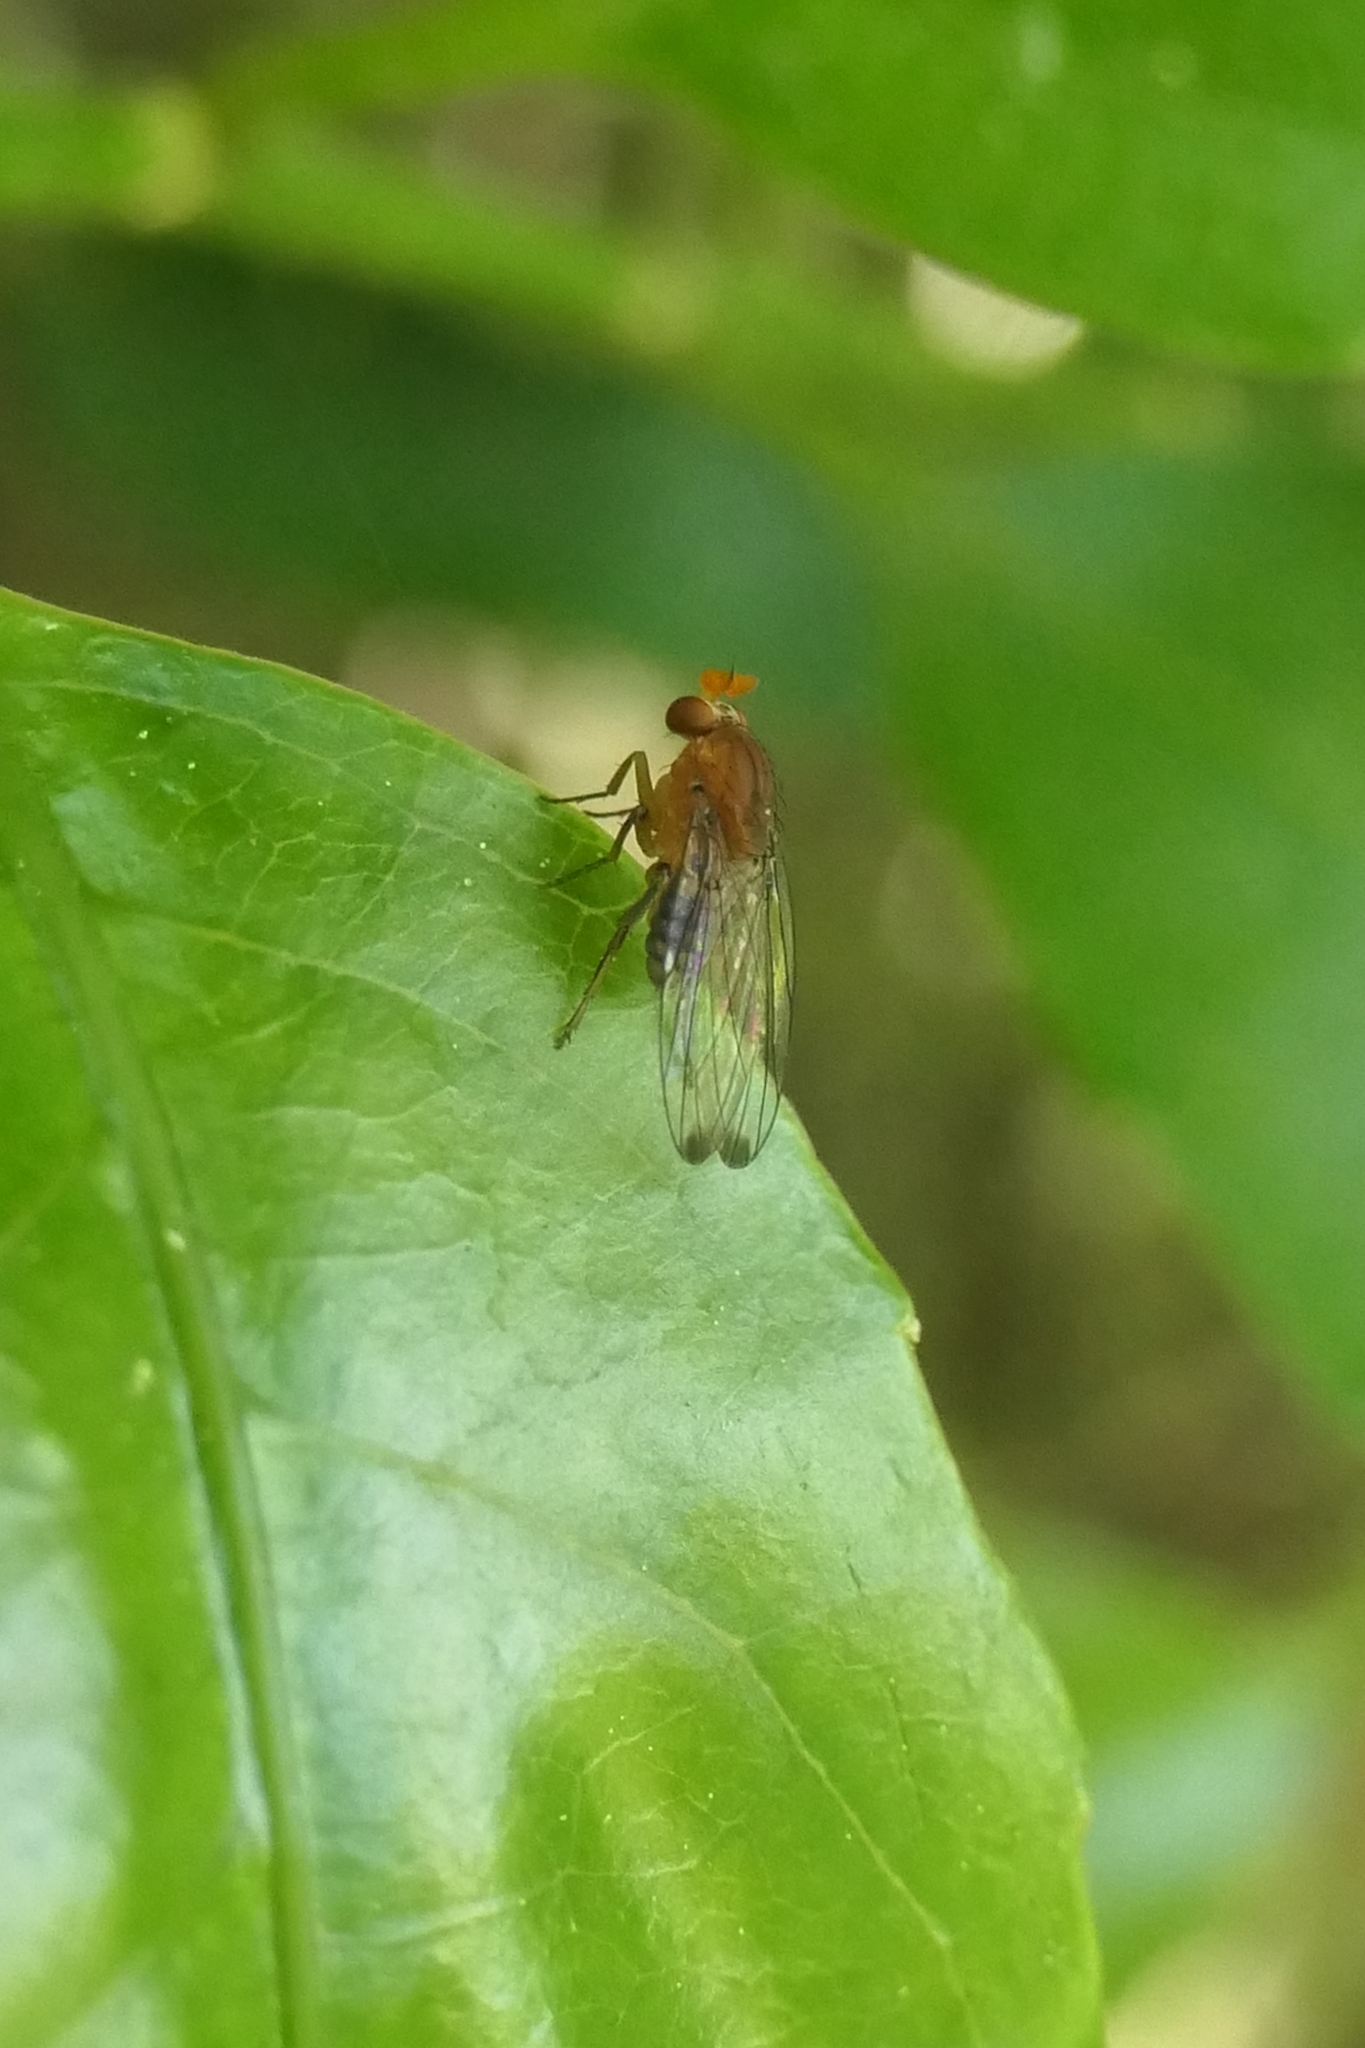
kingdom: Animalia
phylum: Arthropoda
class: Insecta
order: Diptera
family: Phoridae
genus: Sciadocera
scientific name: Sciadocera rufomaculata
